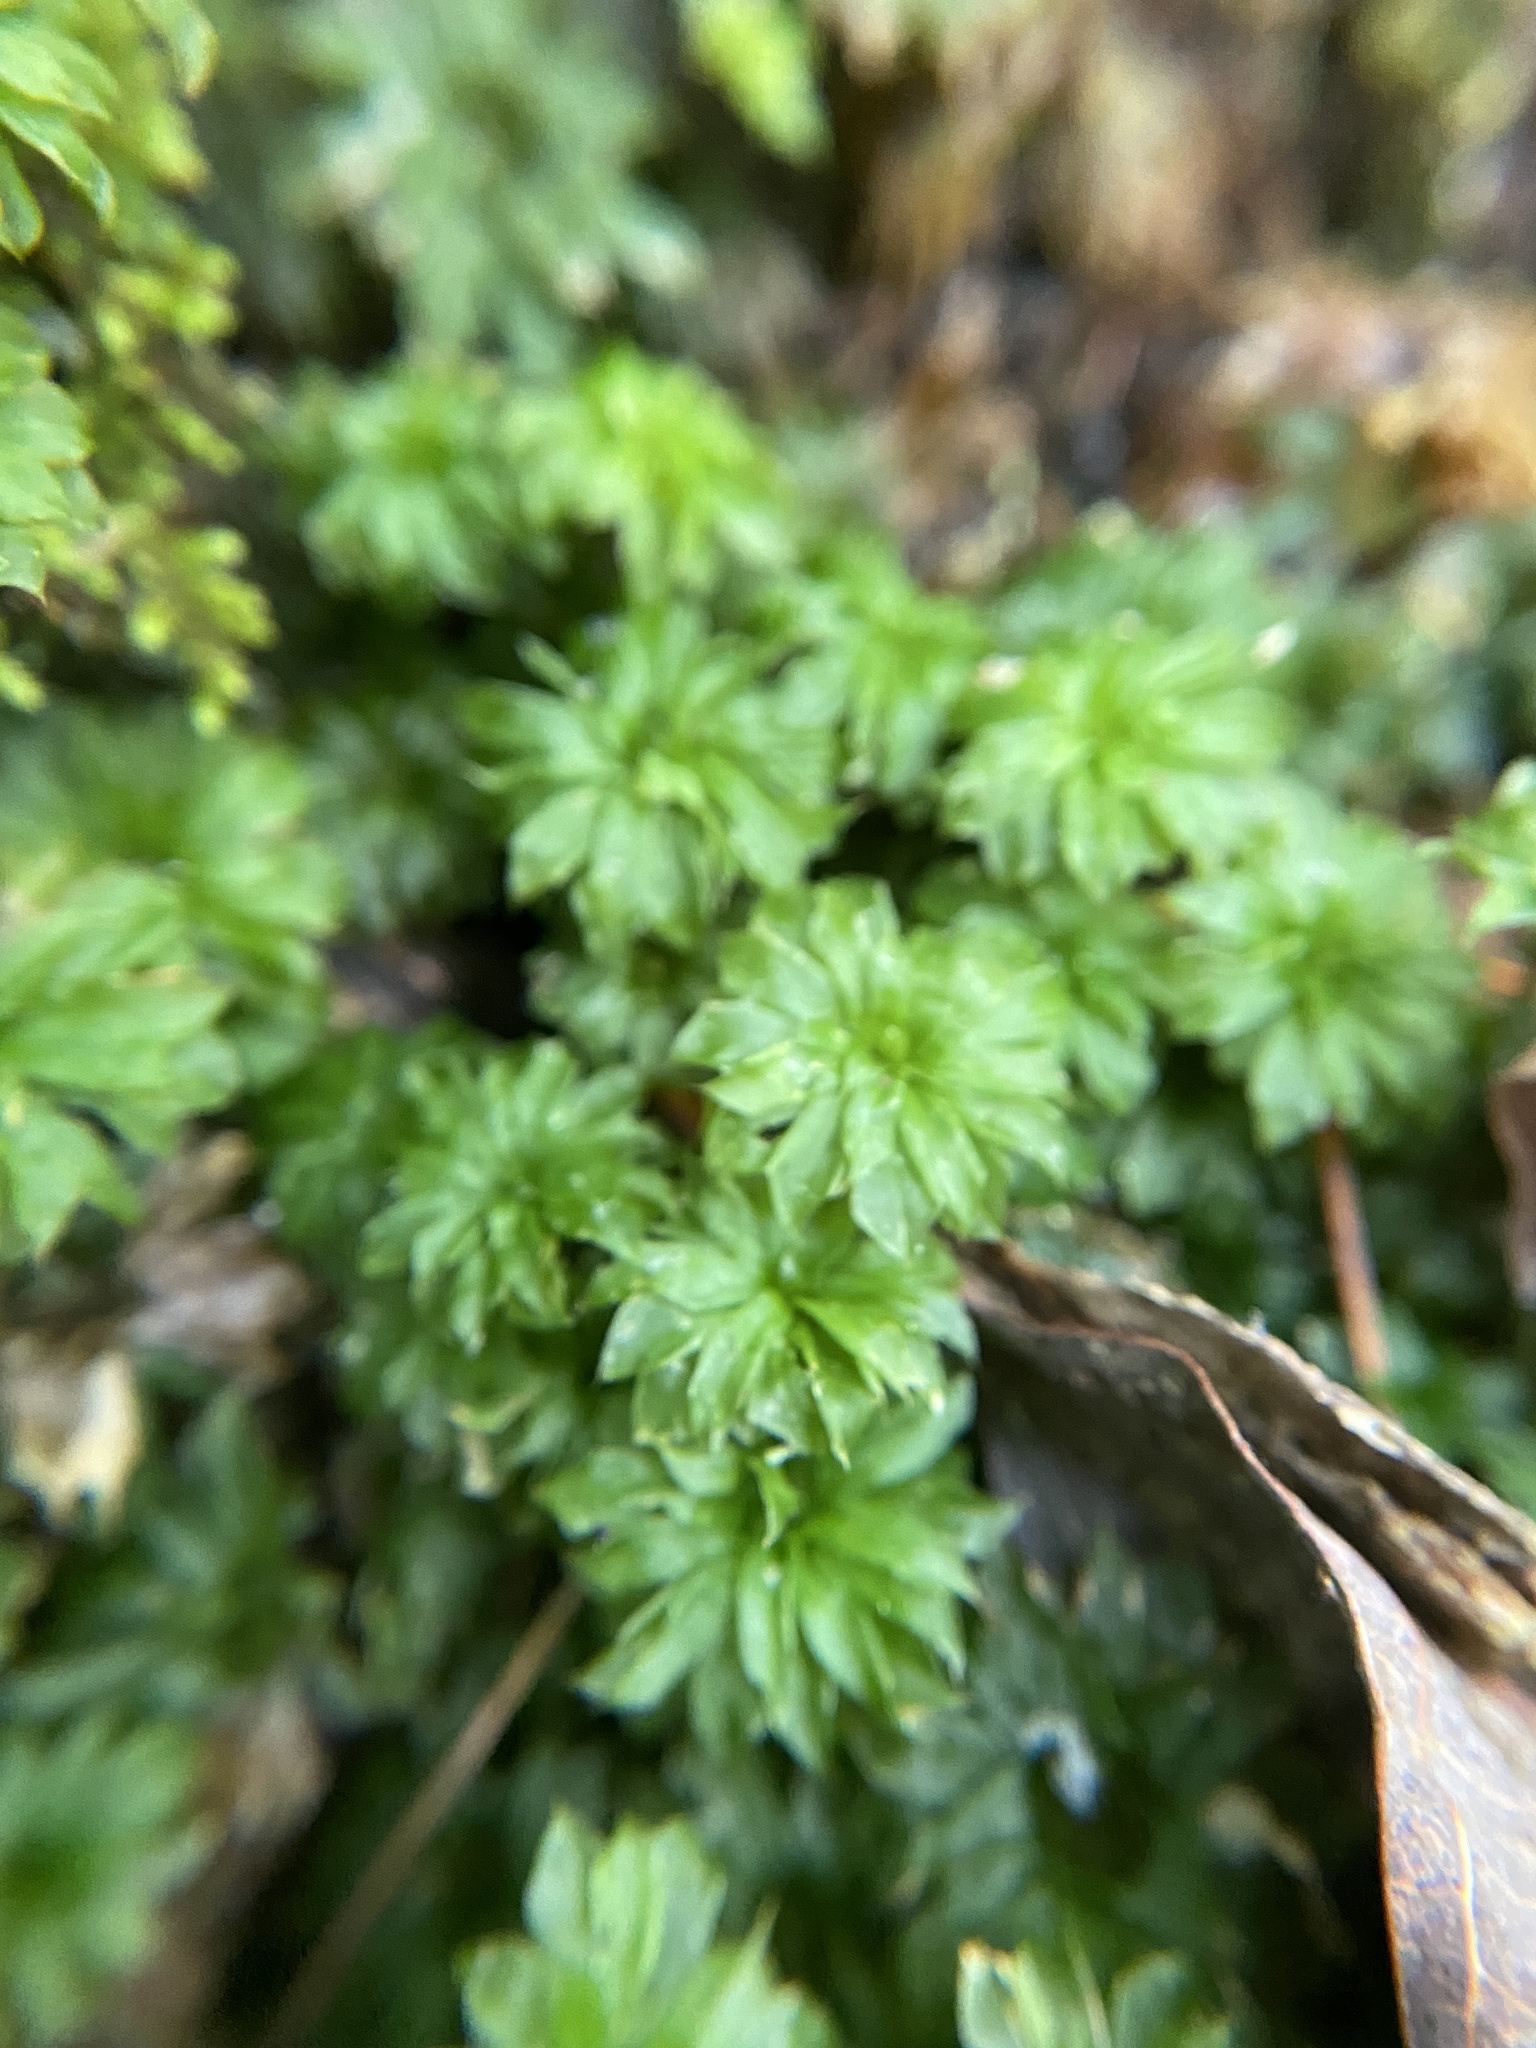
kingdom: Plantae
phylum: Bryophyta
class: Bryopsida
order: Bryales
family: Bryaceae
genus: Rhodobryum
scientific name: Rhodobryum ontariense
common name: Ontario rhodobryum moss
